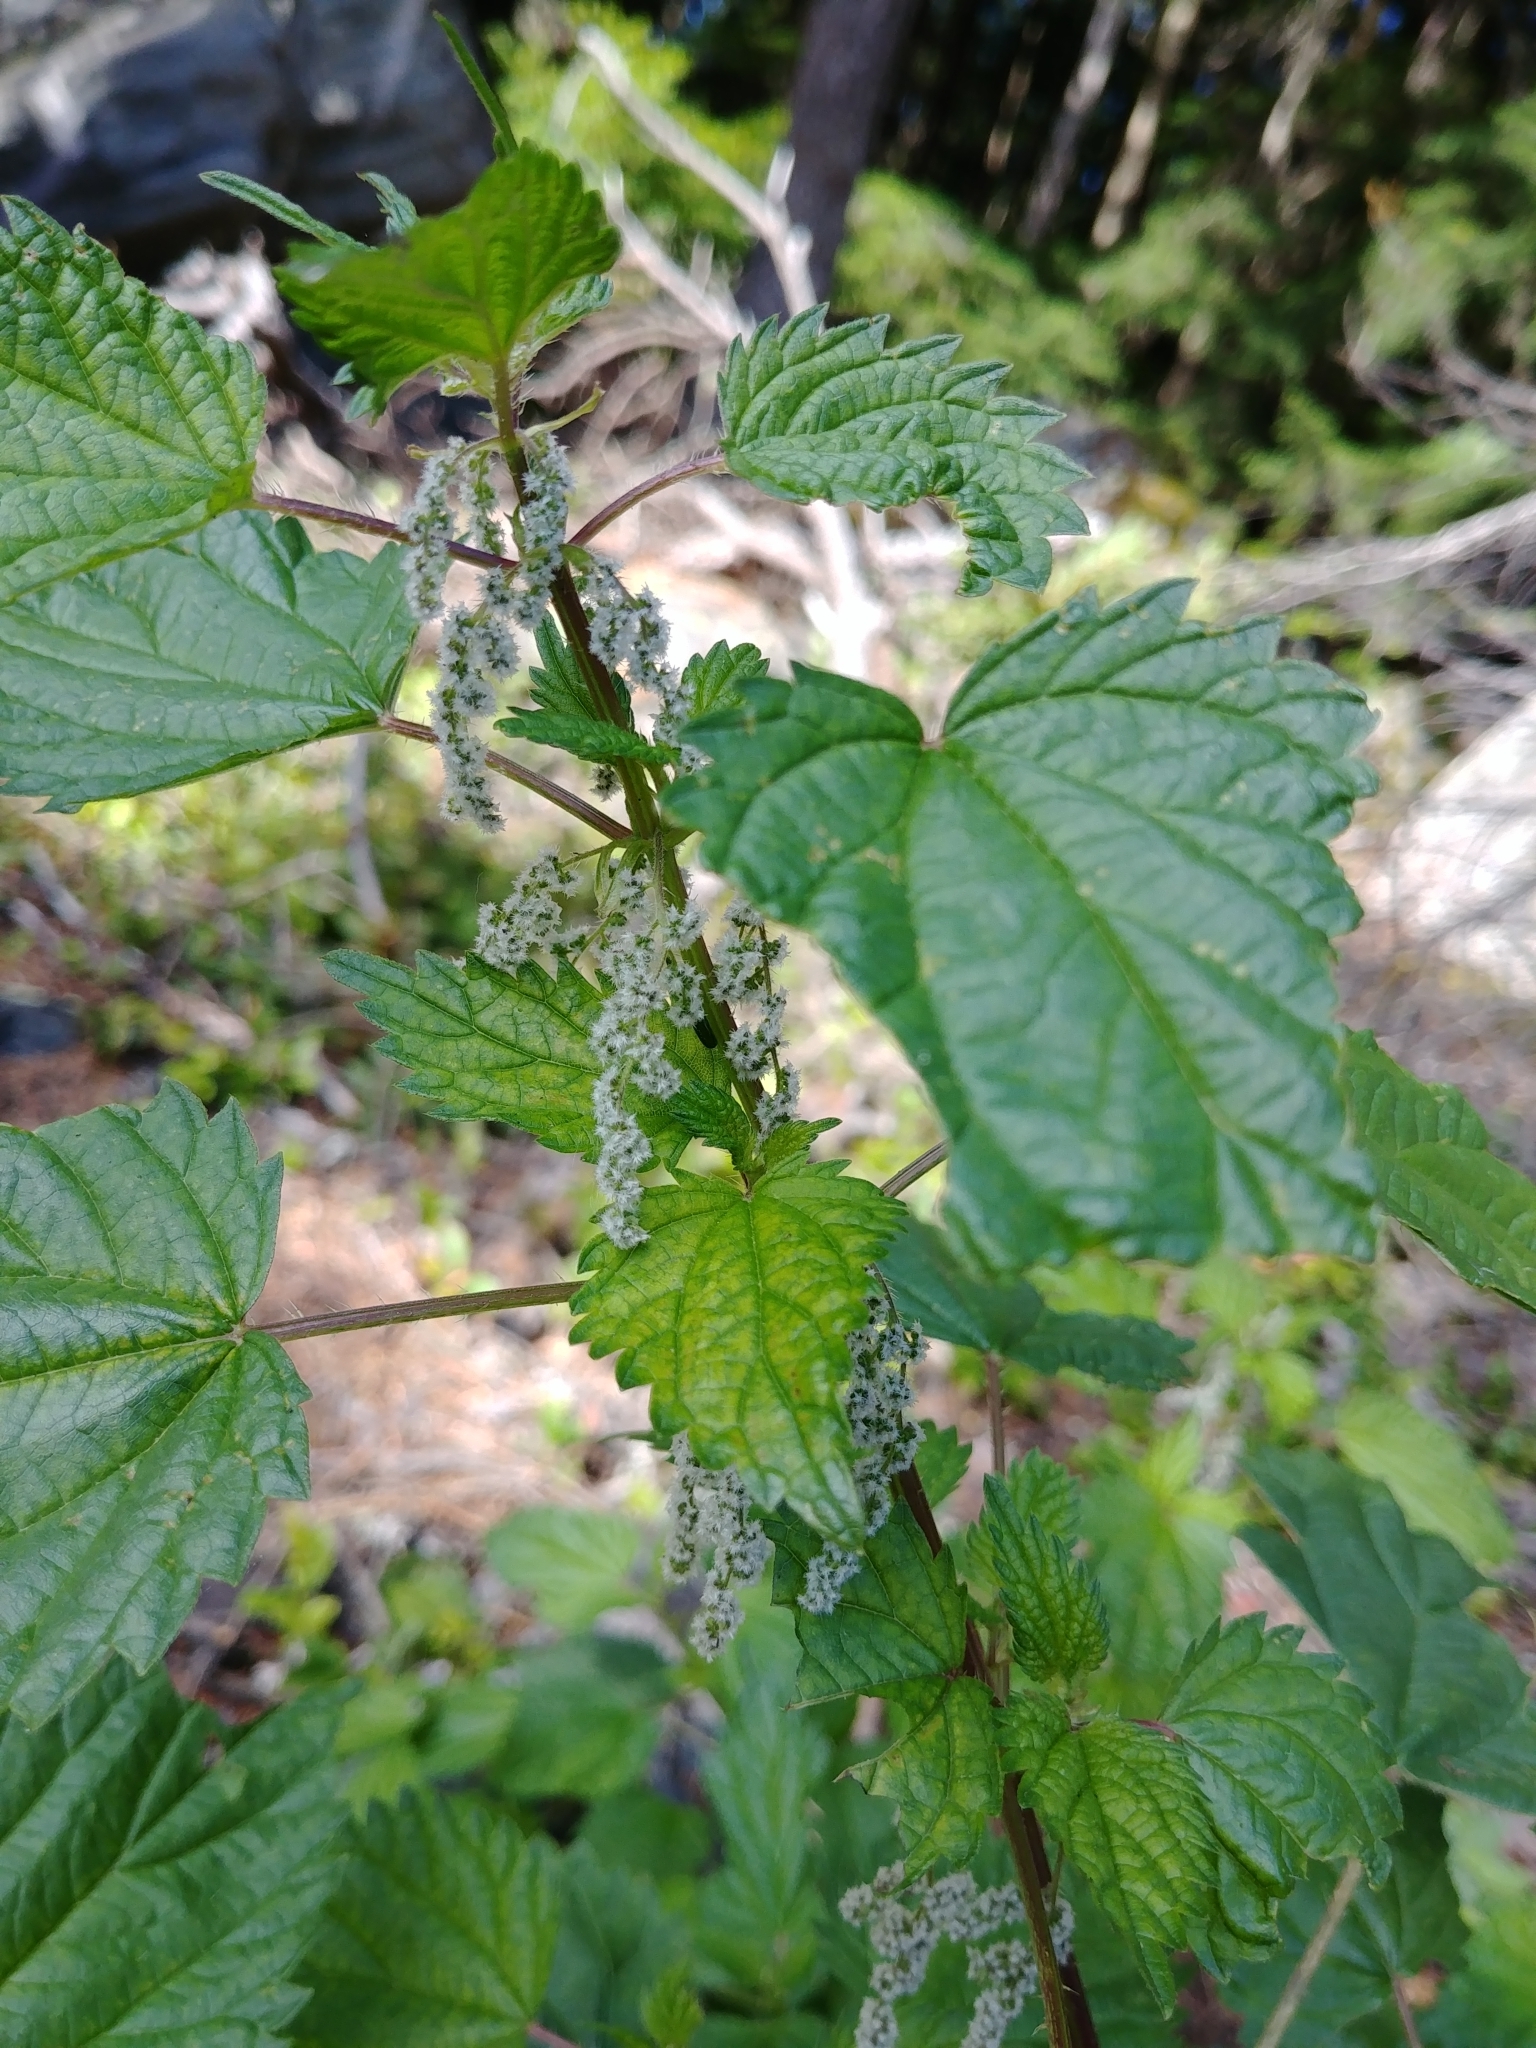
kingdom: Plantae
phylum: Tracheophyta
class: Magnoliopsida
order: Rosales
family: Urticaceae
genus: Urtica
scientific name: Urtica dioica
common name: Common nettle
